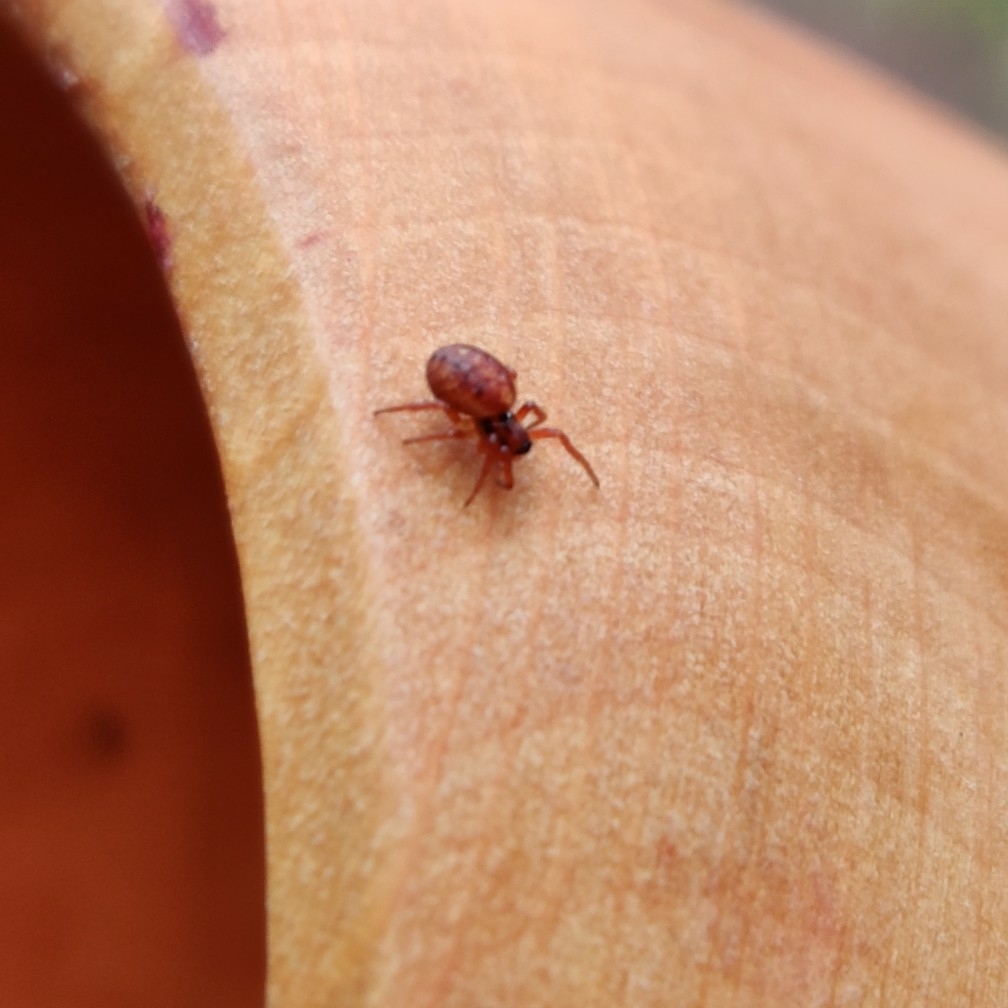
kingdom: Animalia
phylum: Arthropoda
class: Arachnida
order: Araneae
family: Araneidae
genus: Cercidia
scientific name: Cercidia prominens
